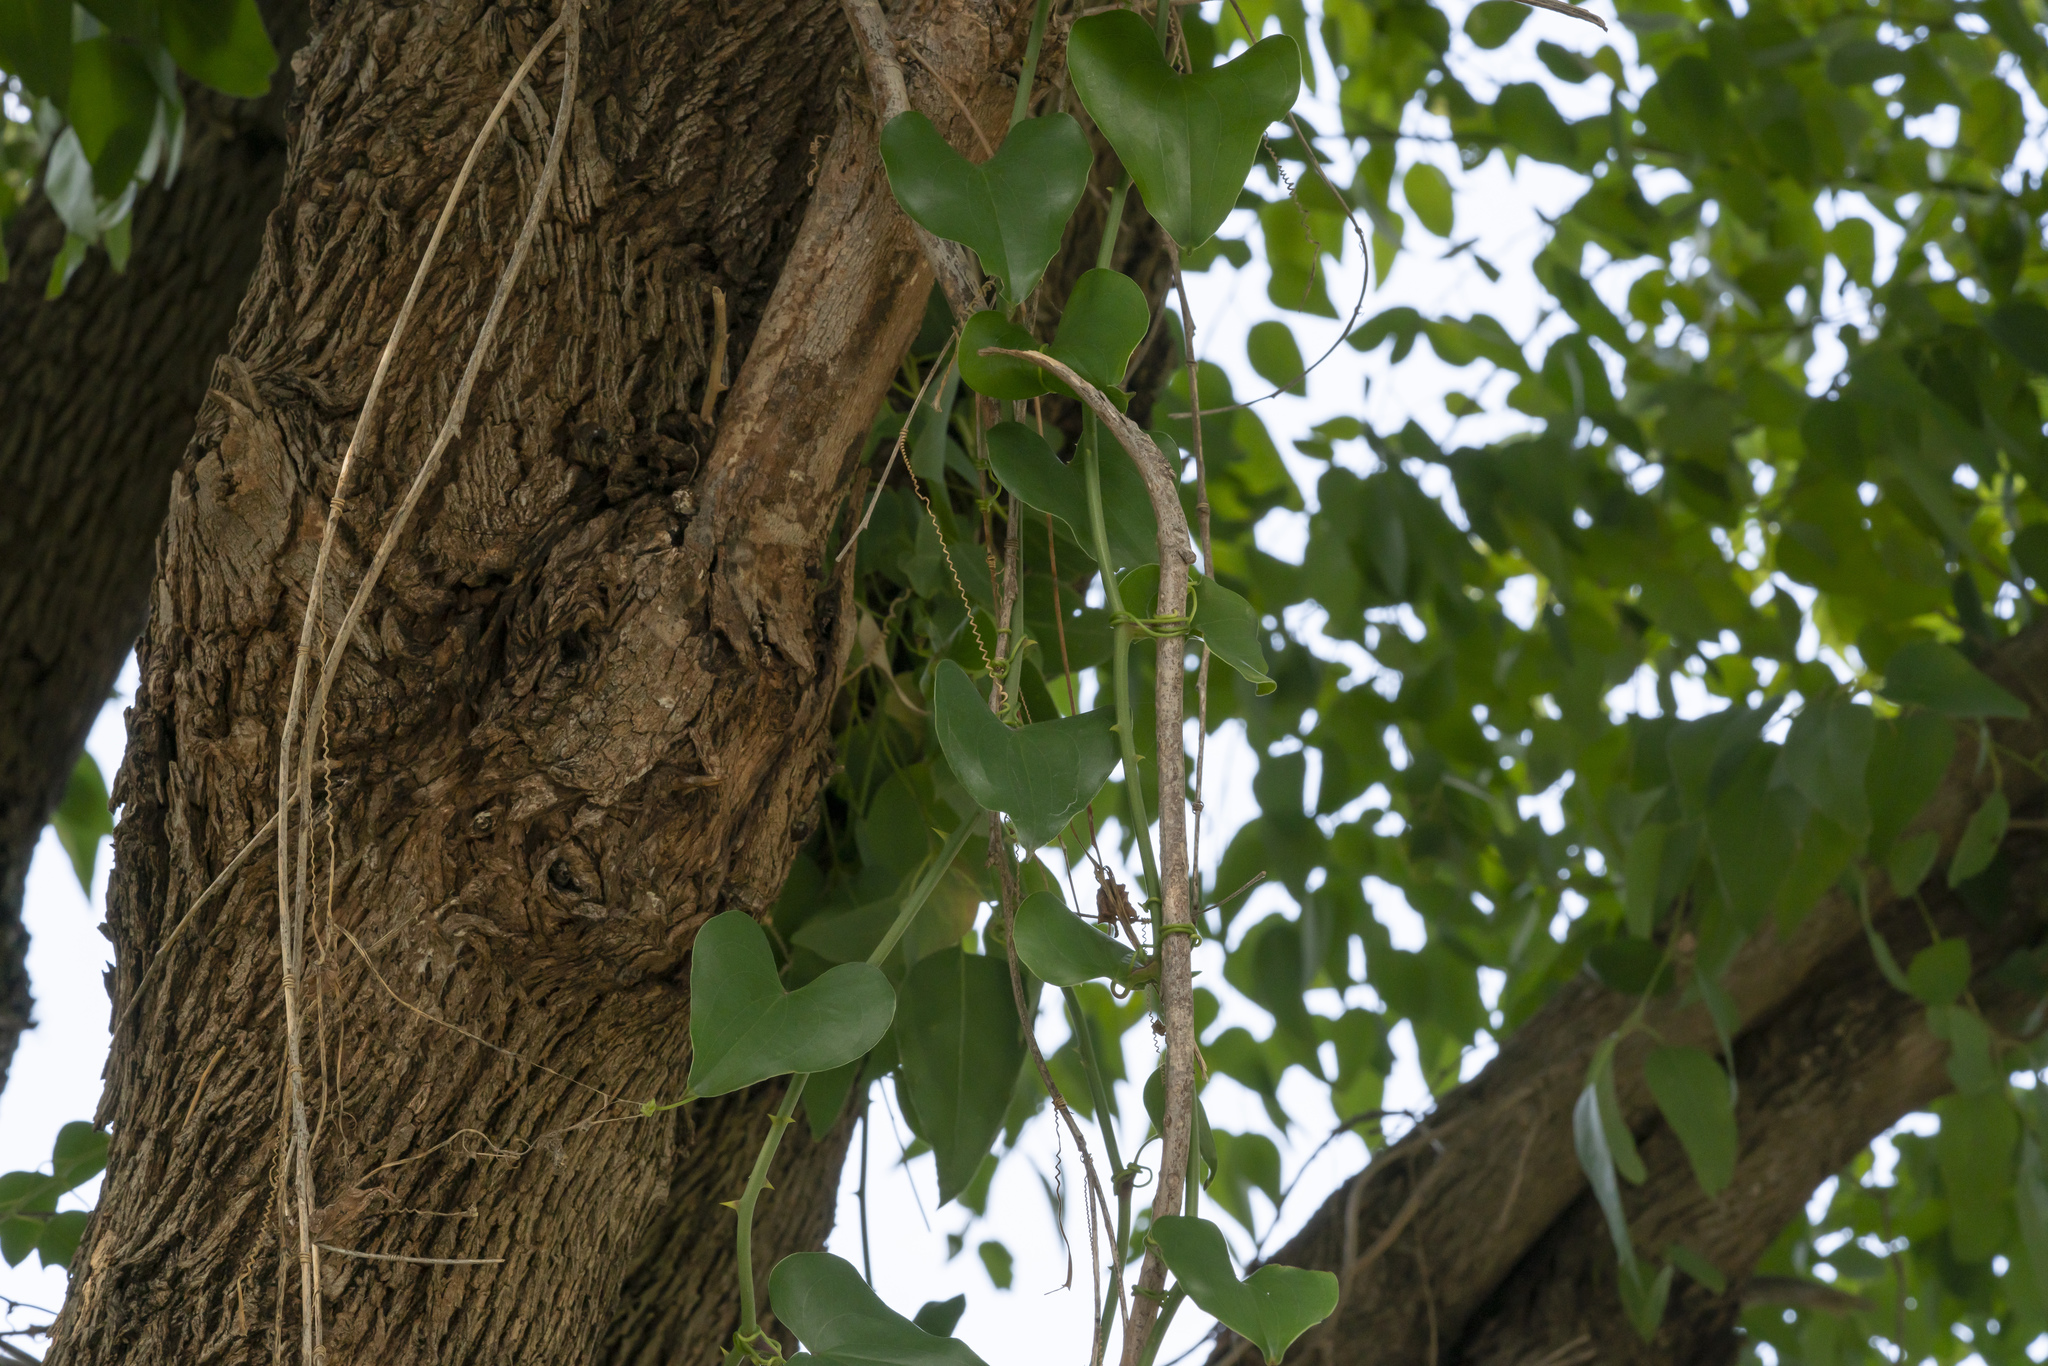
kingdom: Plantae
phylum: Tracheophyta
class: Liliopsida
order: Liliales
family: Smilacaceae
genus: Smilax
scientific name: Smilax aspera
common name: Common smilax
